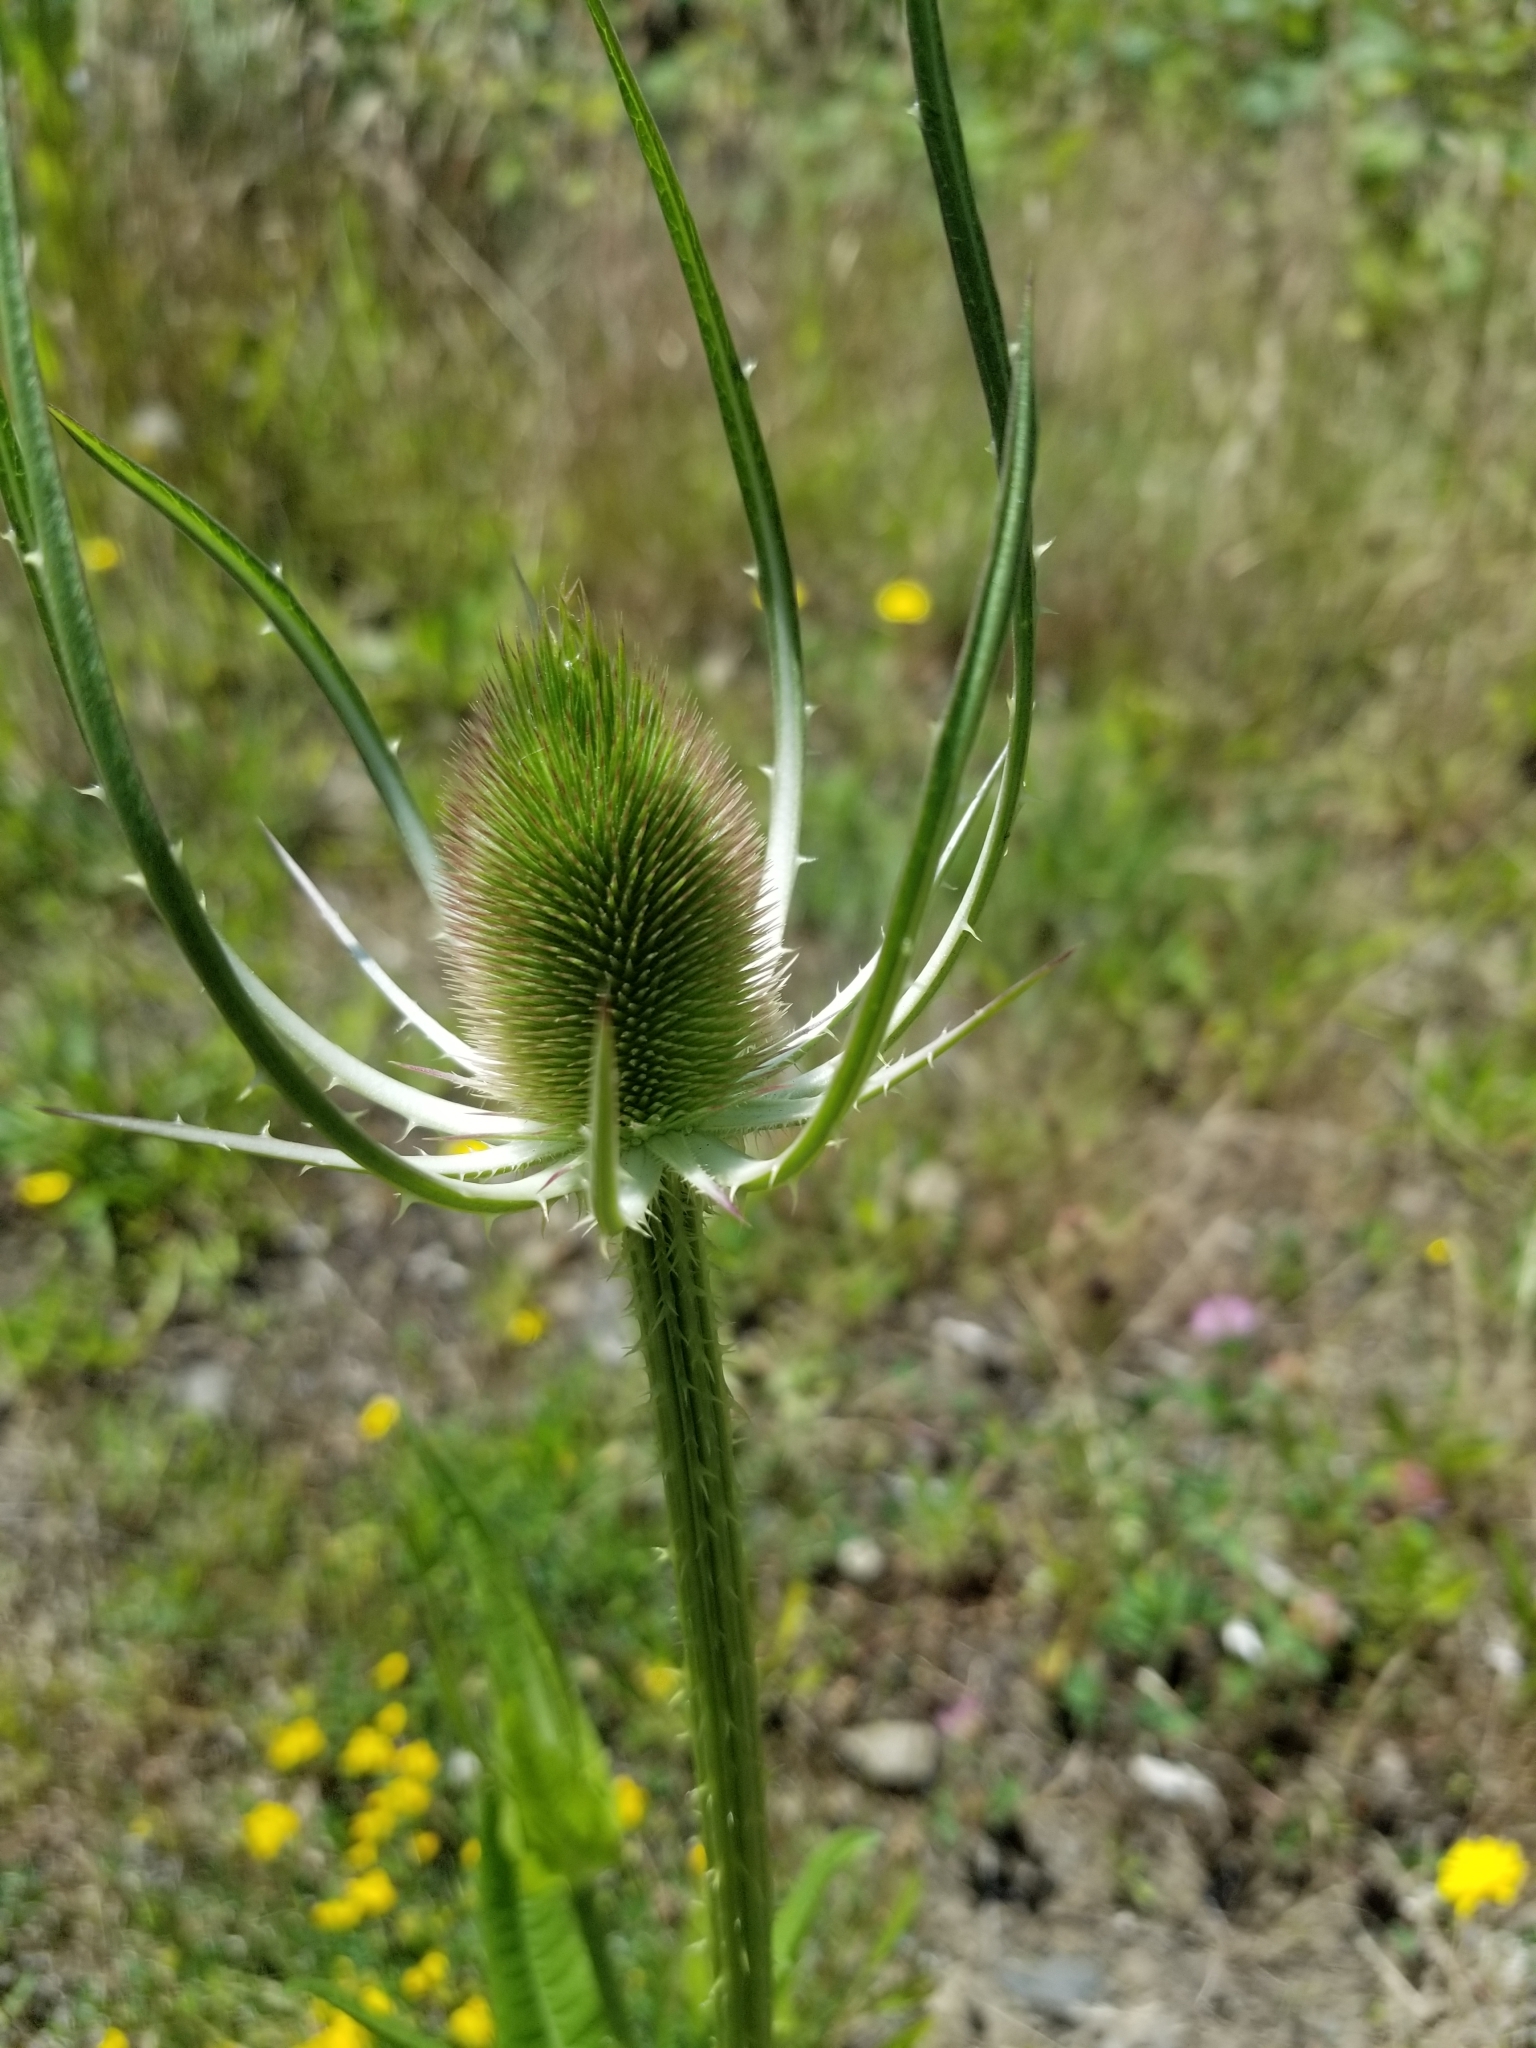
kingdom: Plantae
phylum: Tracheophyta
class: Magnoliopsida
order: Dipsacales
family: Caprifoliaceae
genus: Dipsacus
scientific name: Dipsacus fullonum
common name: Teasel
